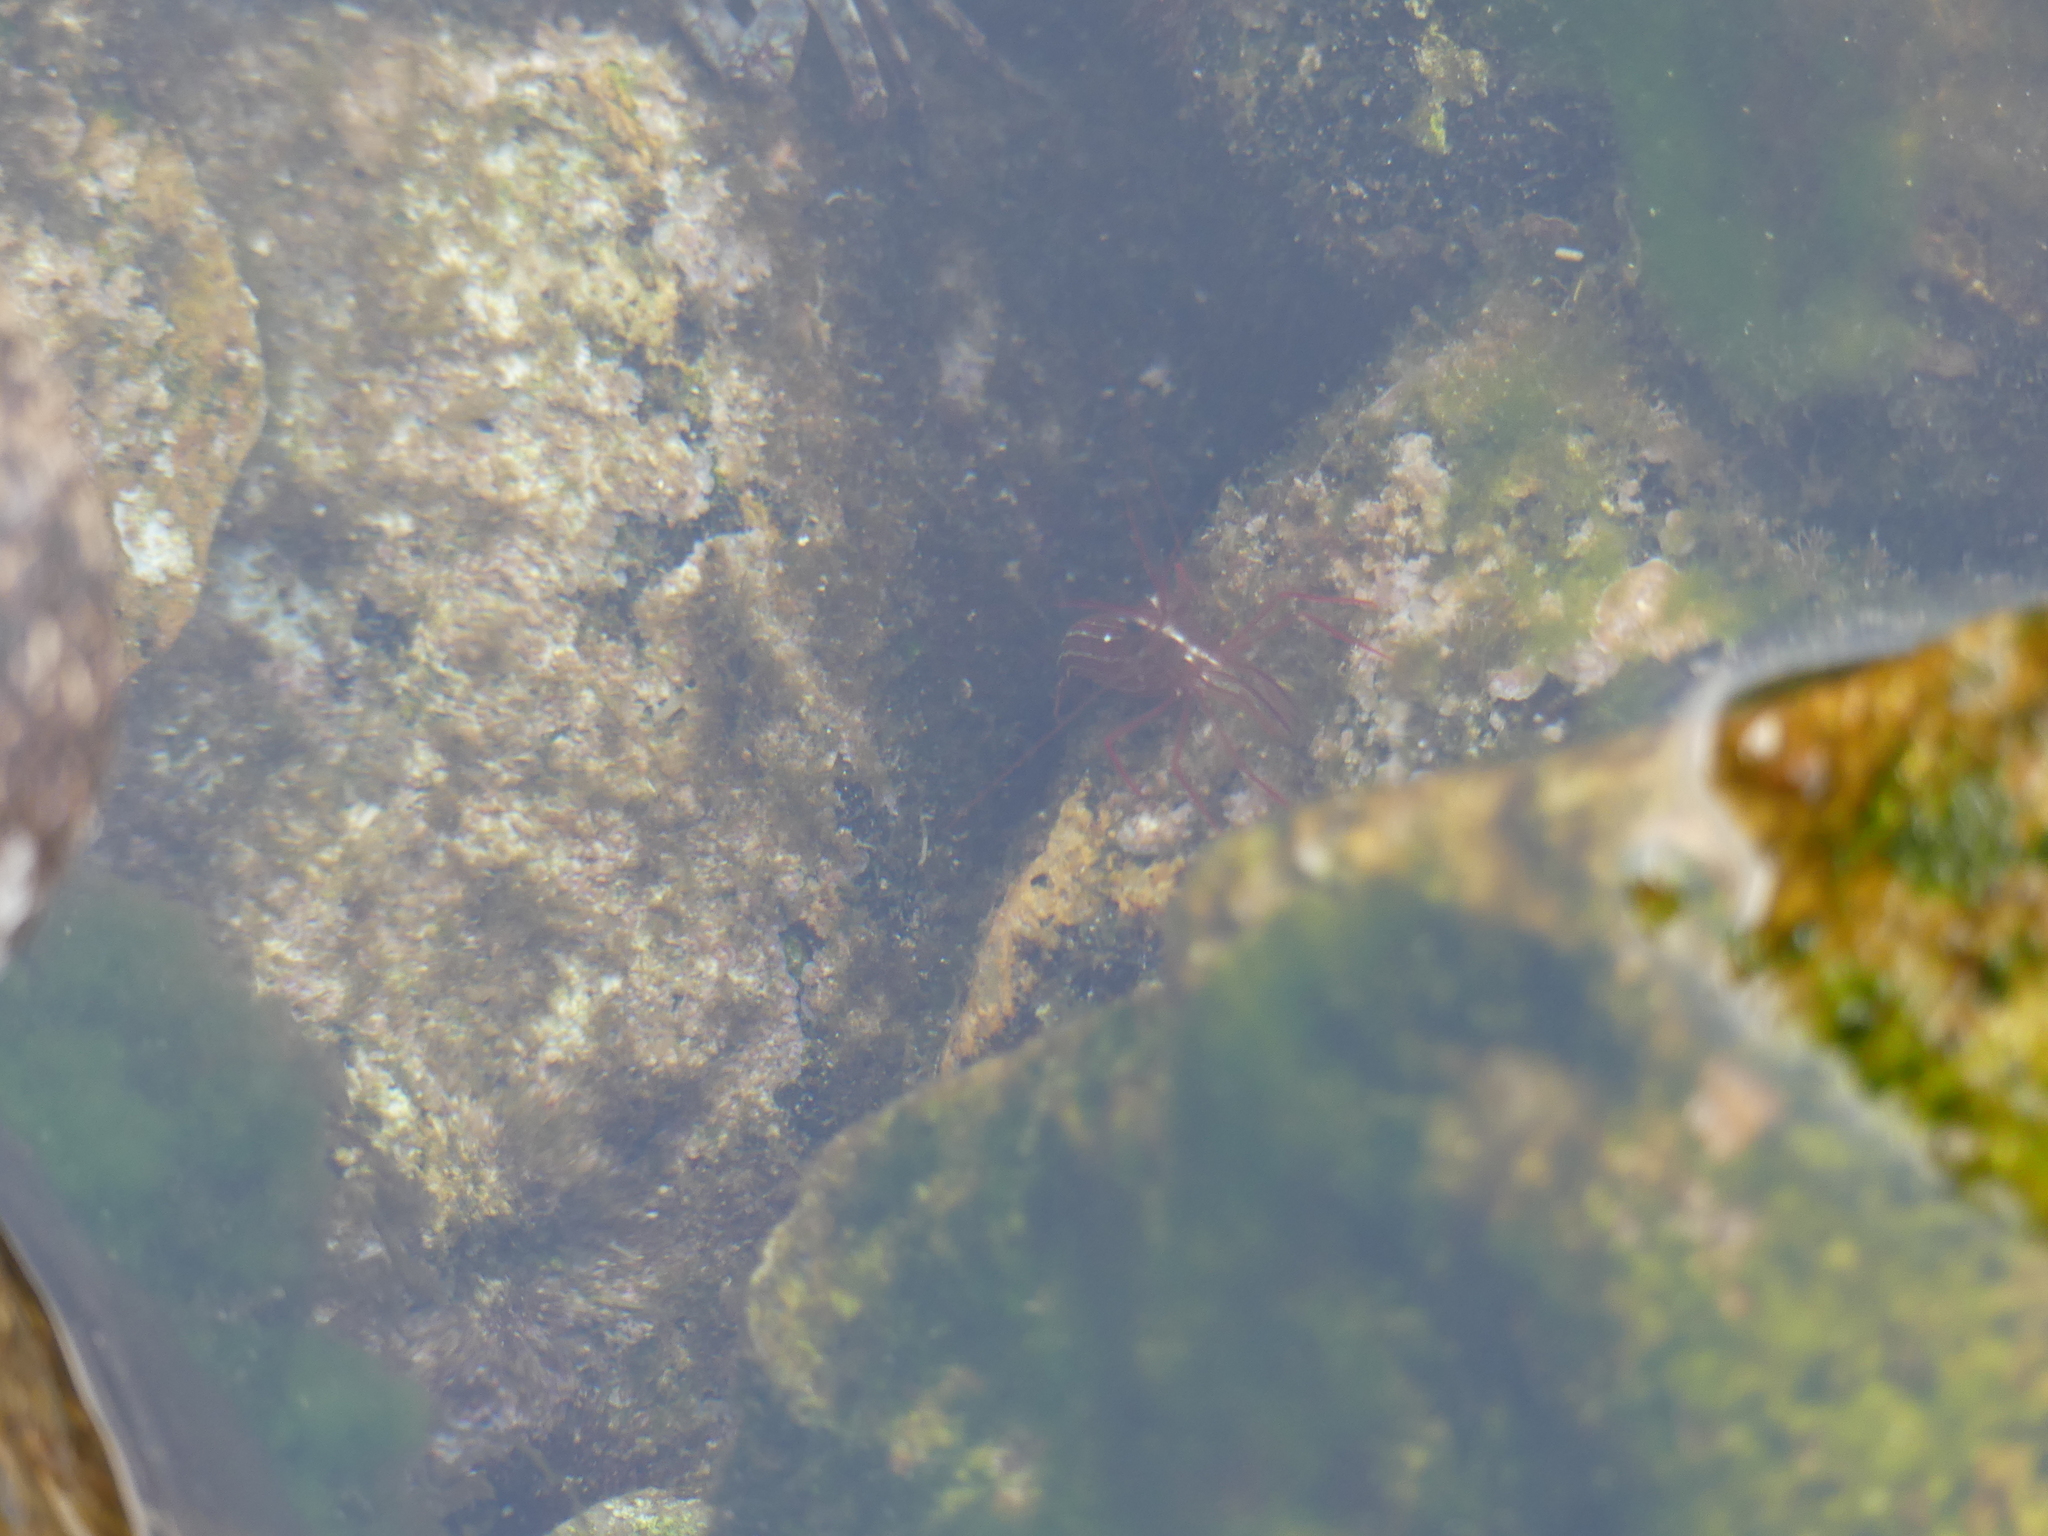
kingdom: Animalia
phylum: Arthropoda
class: Malacostraca
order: Decapoda
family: Lysmatidae
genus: Lysmata
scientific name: Lysmata seticaudata
